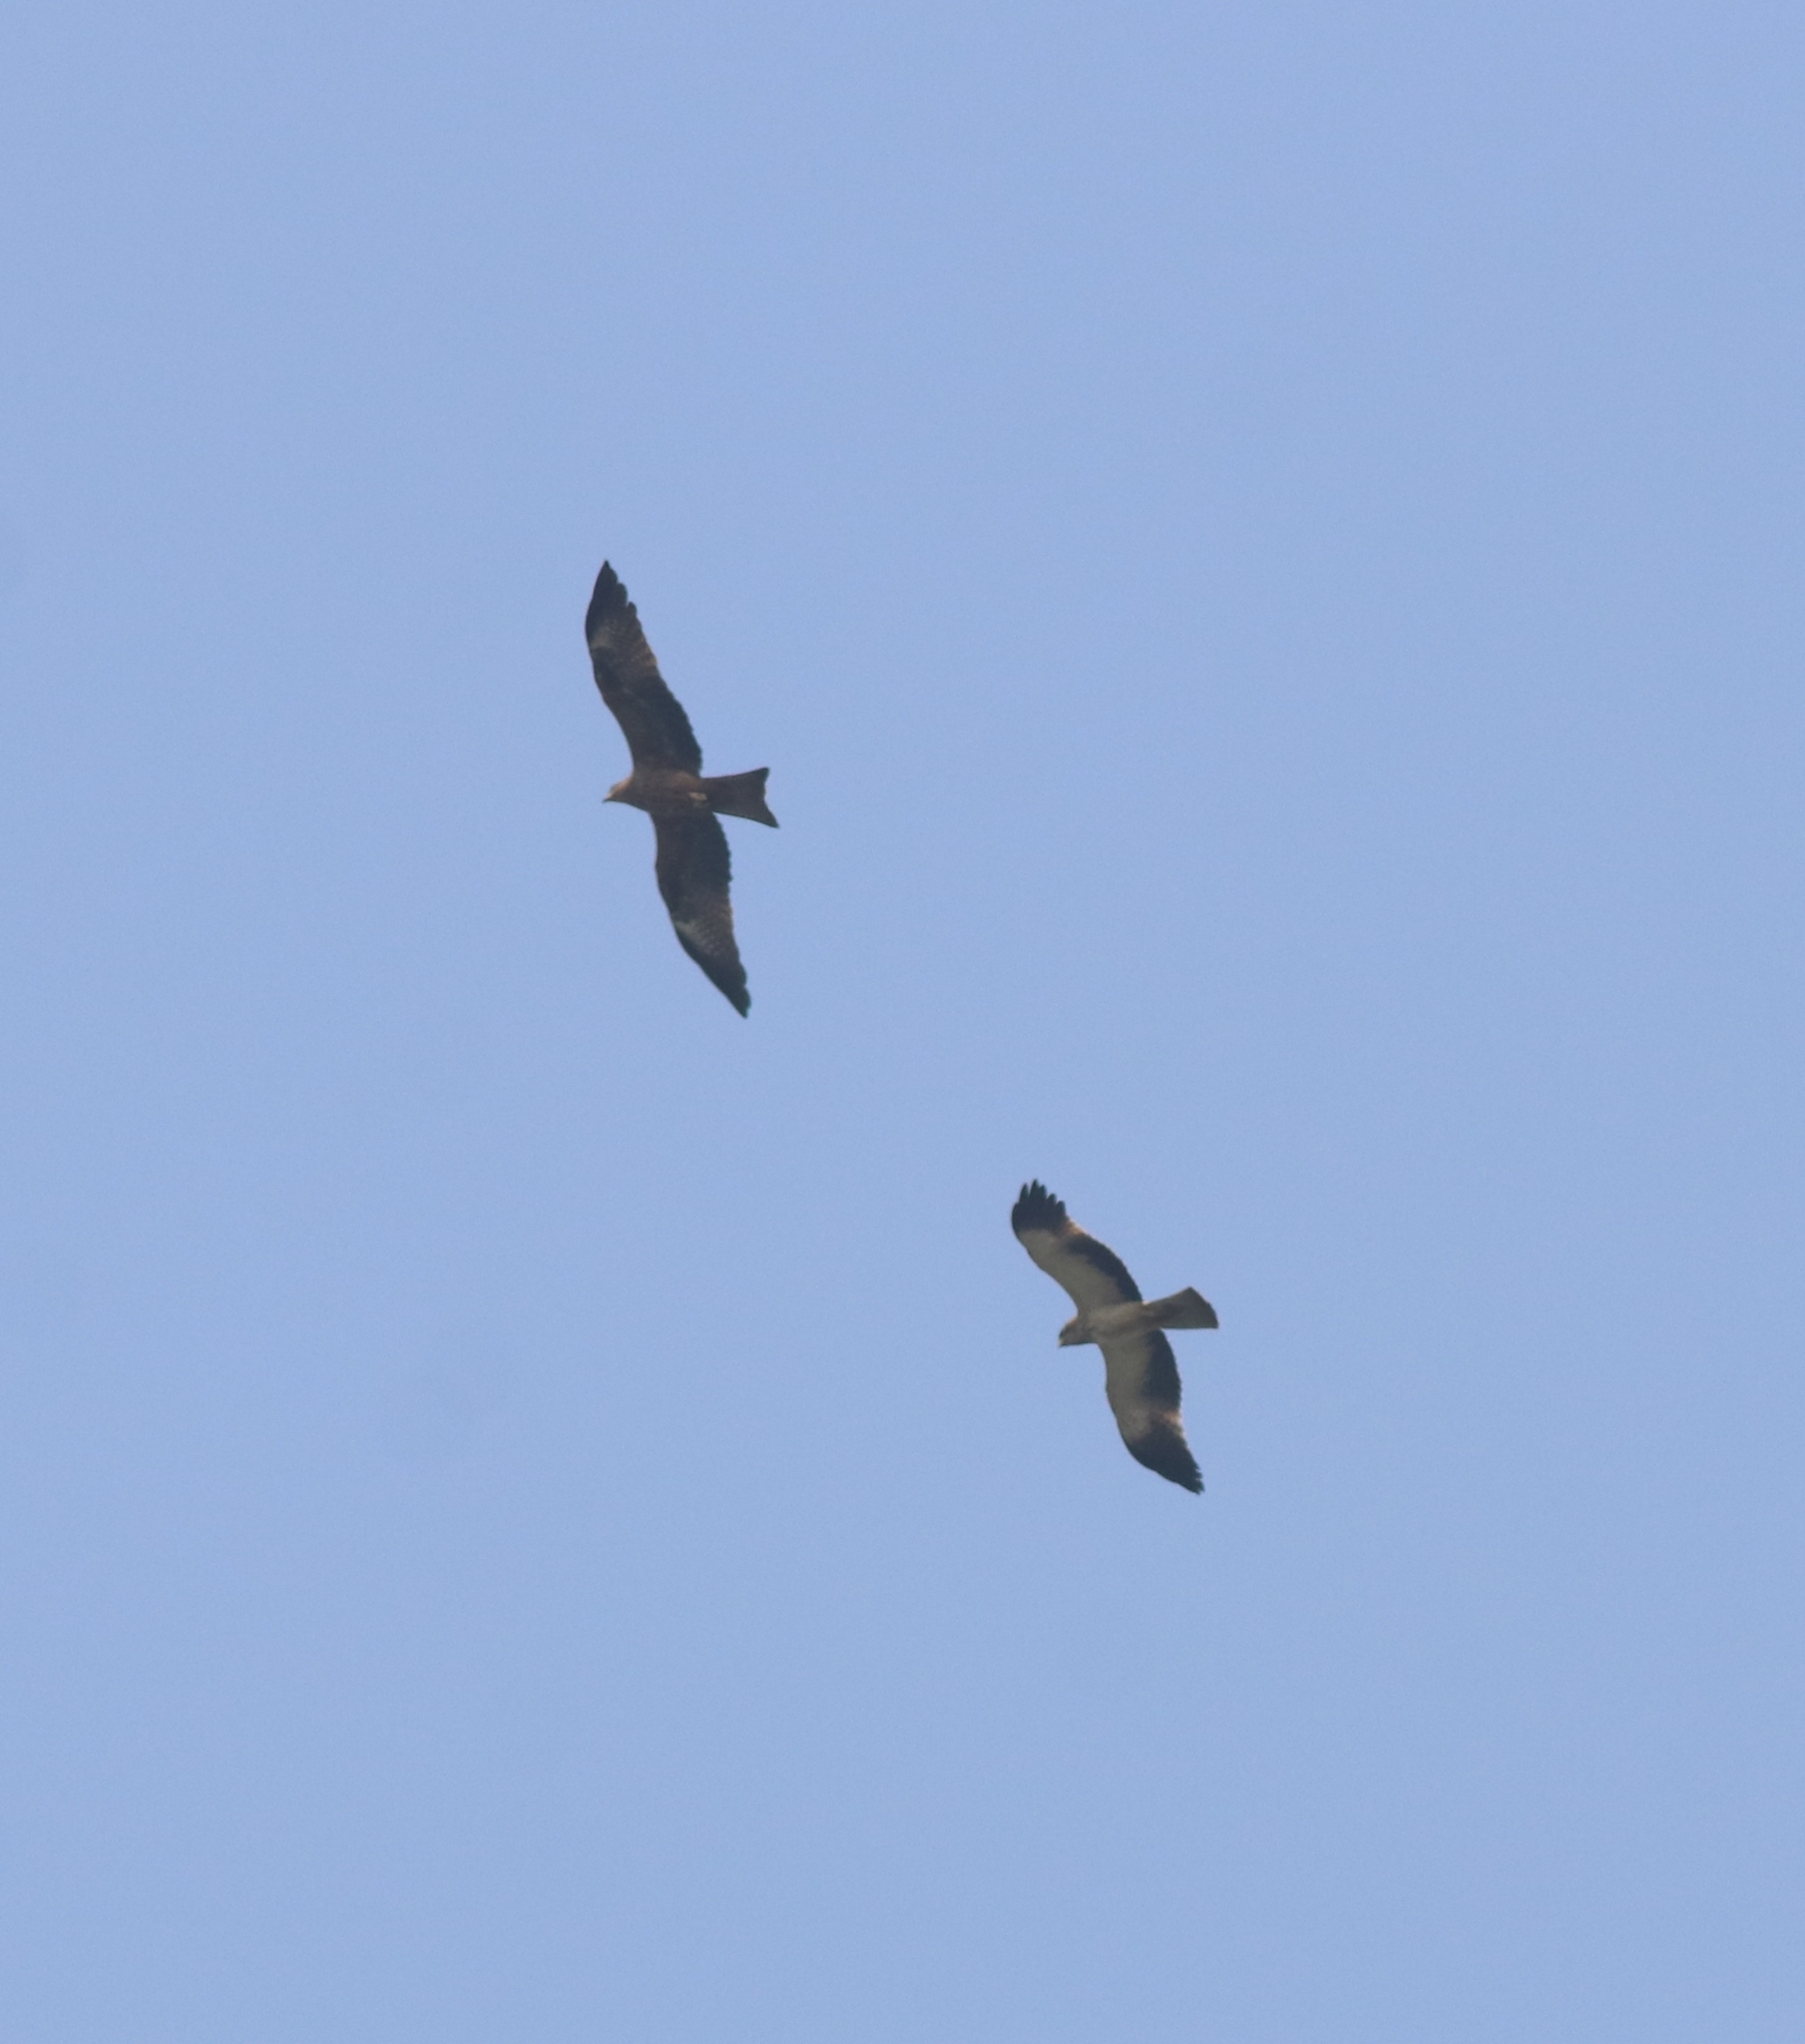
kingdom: Animalia
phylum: Chordata
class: Aves
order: Accipitriformes
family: Accipitridae
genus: Hieraaetus
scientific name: Hieraaetus pennatus
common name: Booted eagle
